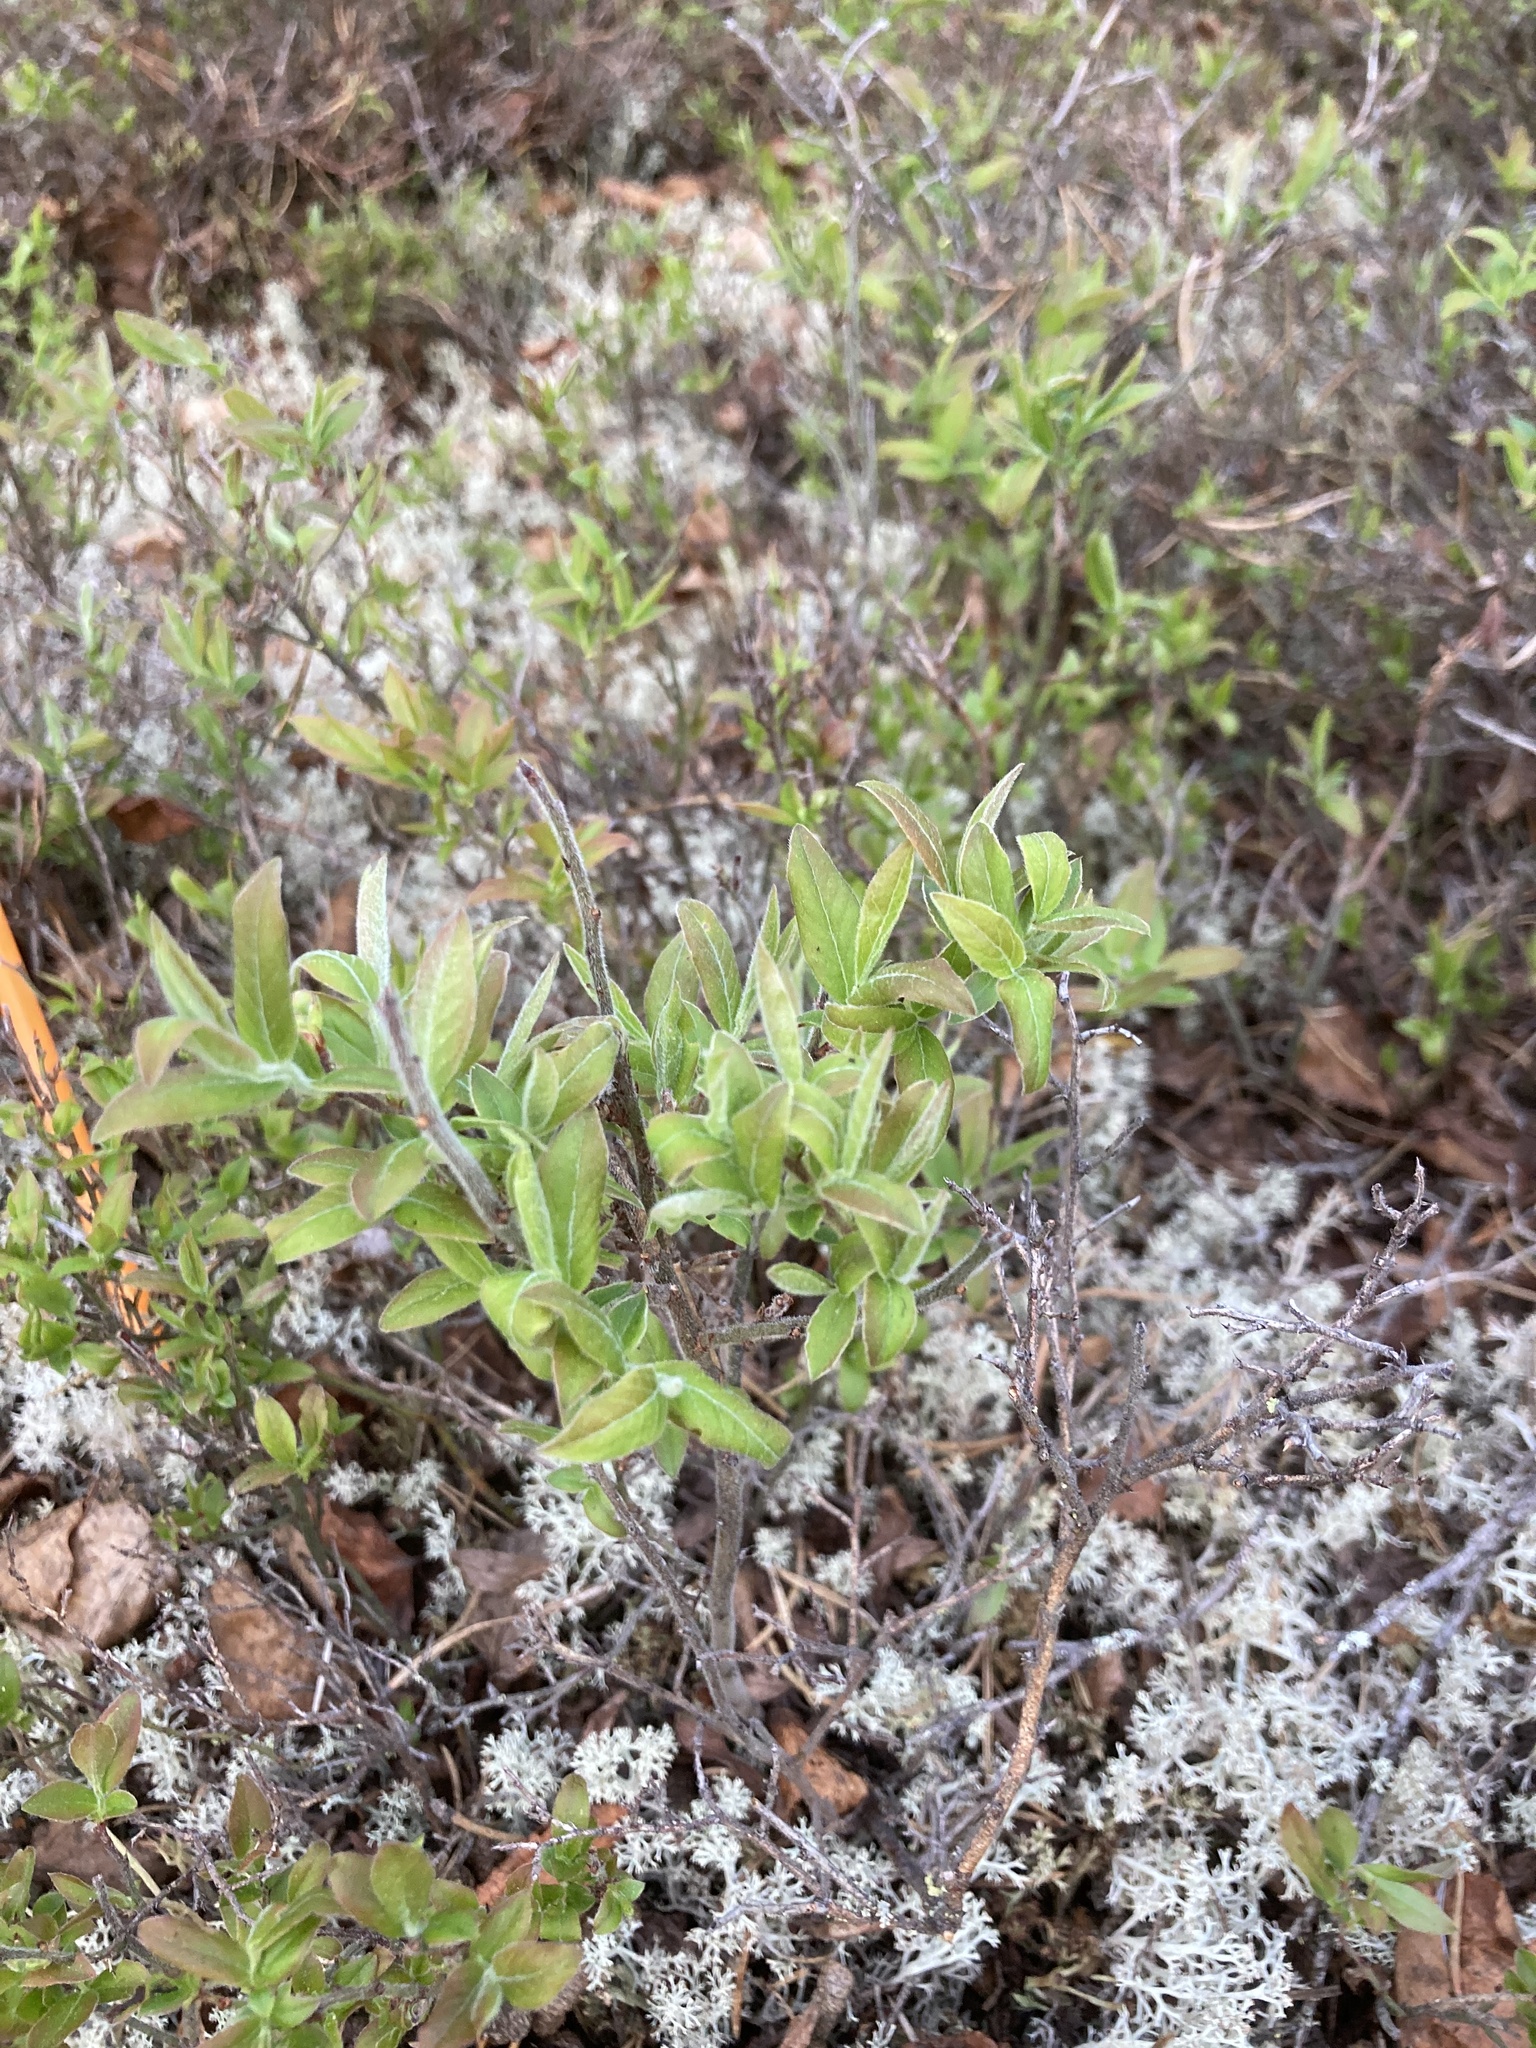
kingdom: Plantae
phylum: Tracheophyta
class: Magnoliopsida
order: Ericales
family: Ericaceae
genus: Vaccinium
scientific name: Vaccinium myrtilloides
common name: Canada blueberry
